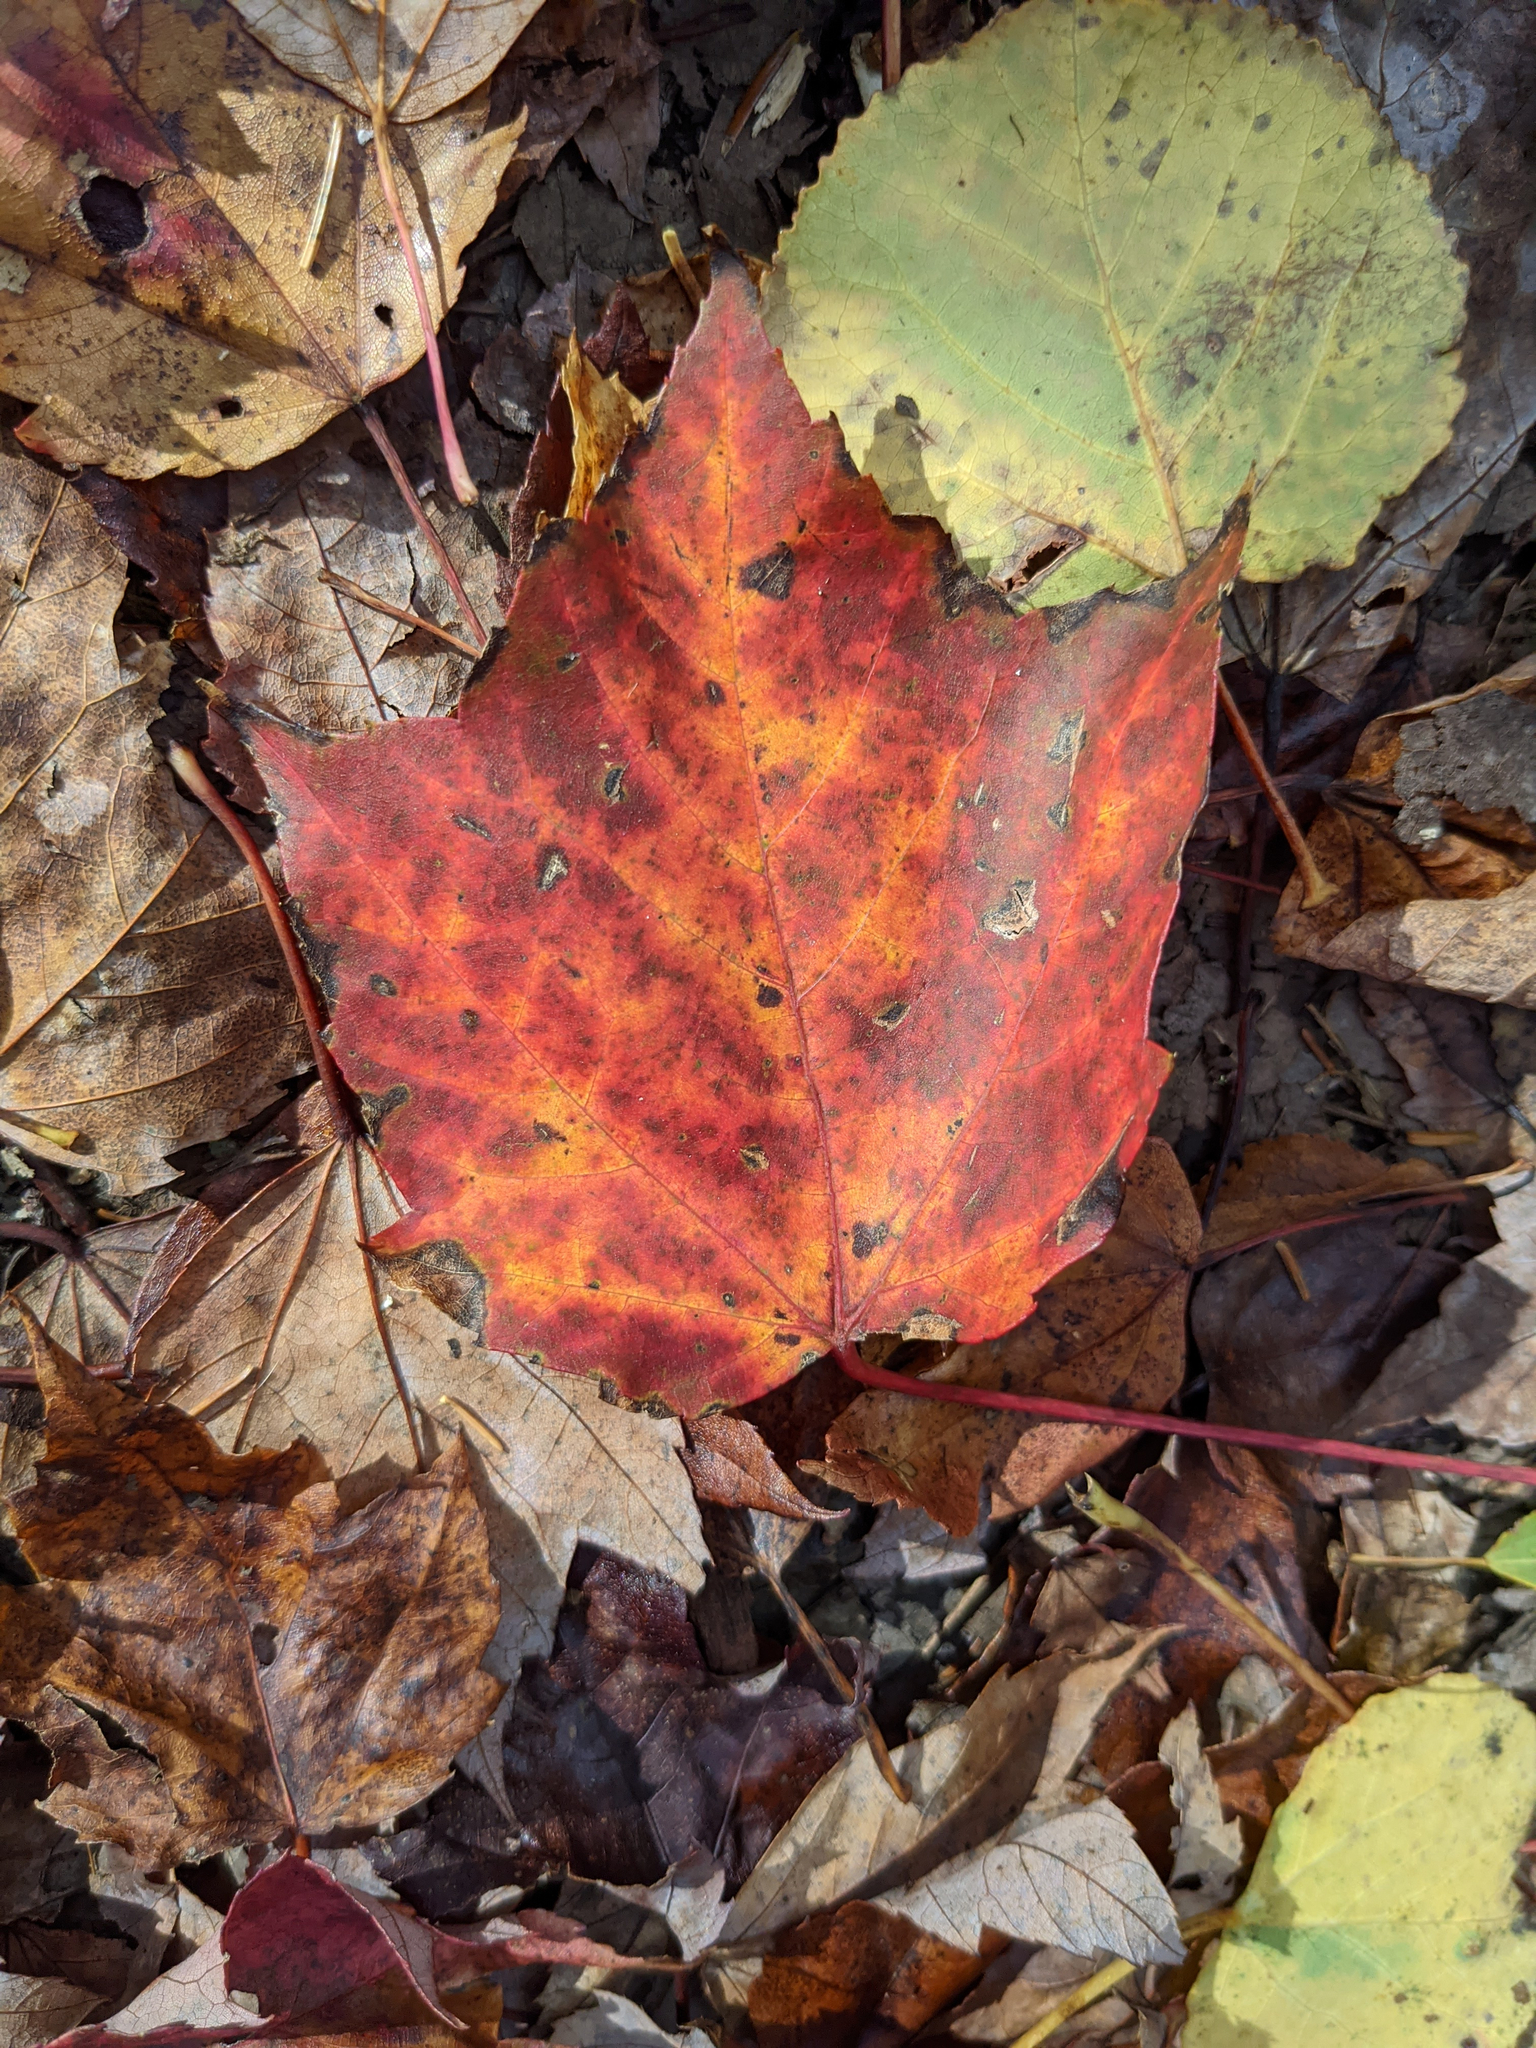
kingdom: Plantae
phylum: Tracheophyta
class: Magnoliopsida
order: Sapindales
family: Sapindaceae
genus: Acer
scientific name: Acer rubrum
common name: Red maple
